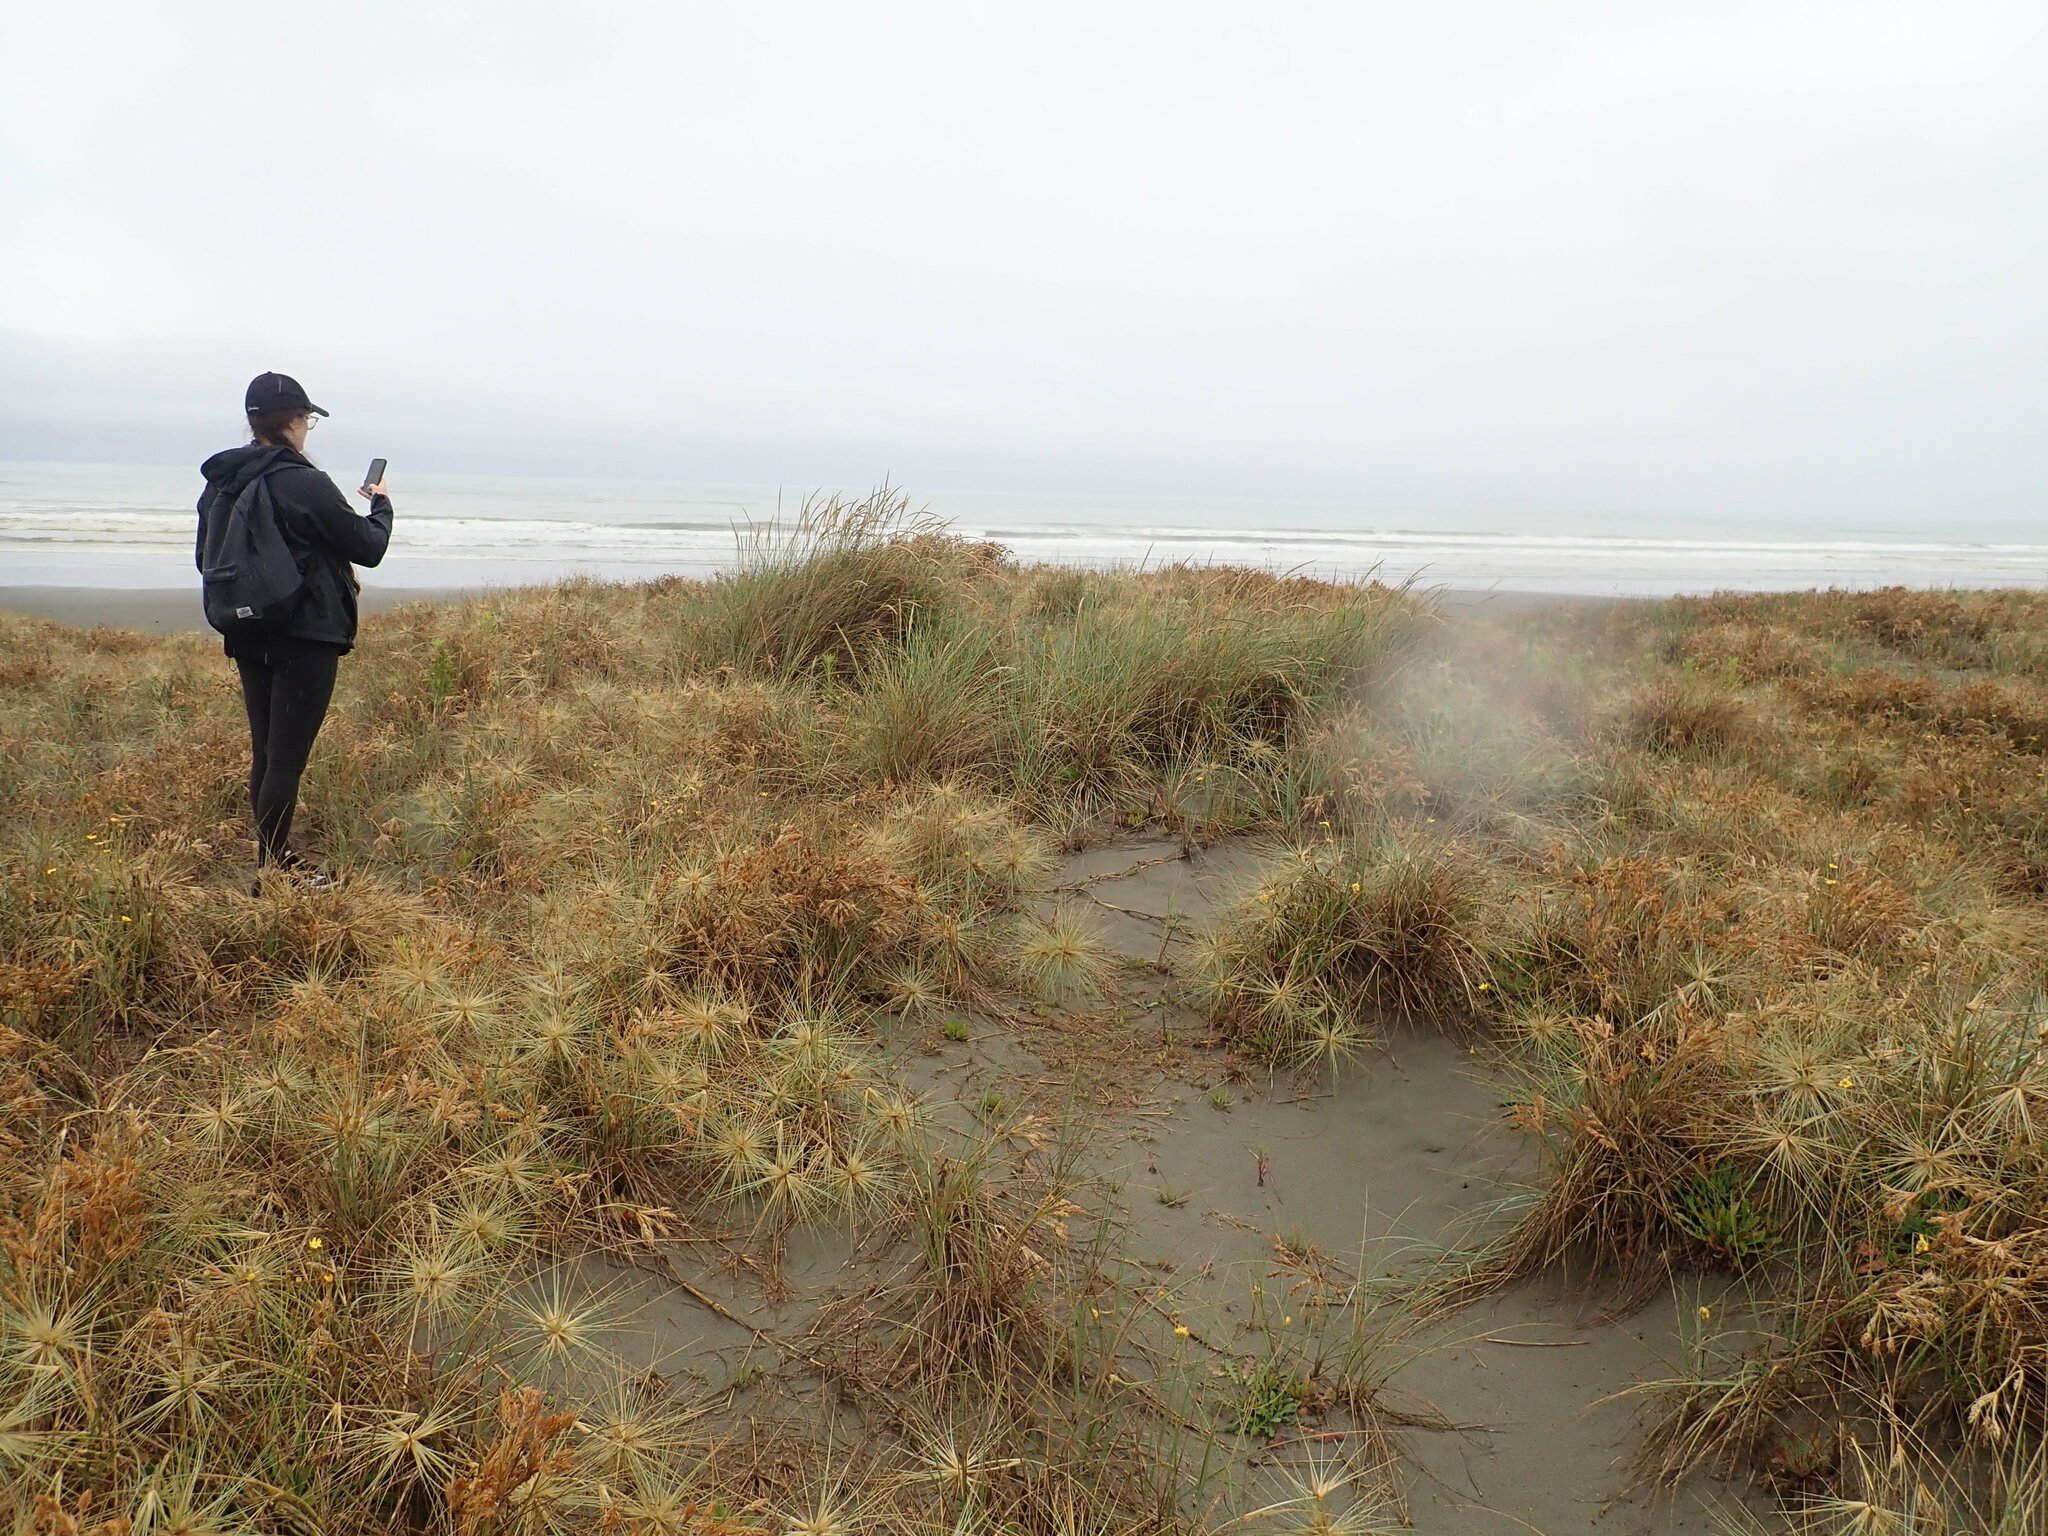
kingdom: Plantae
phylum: Tracheophyta
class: Liliopsida
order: Poales
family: Poaceae
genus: Calamagrostis
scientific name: Calamagrostis arenaria
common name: European beachgrass
